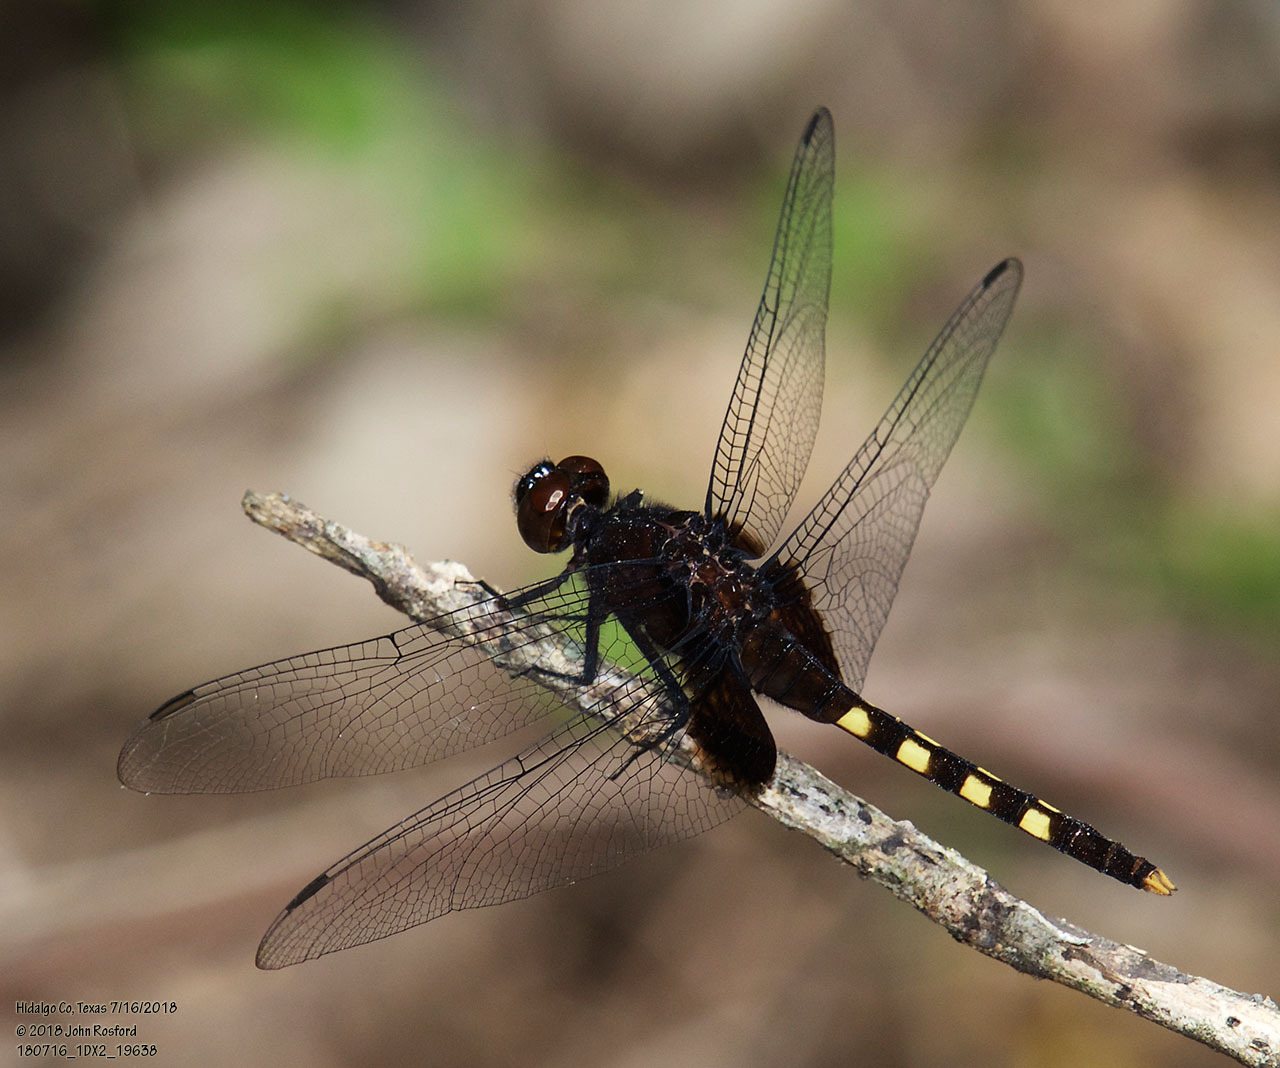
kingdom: Animalia
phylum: Arthropoda
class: Insecta
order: Odonata
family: Libellulidae
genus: Erythemis
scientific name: Erythemis attala
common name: Black pondhawk
